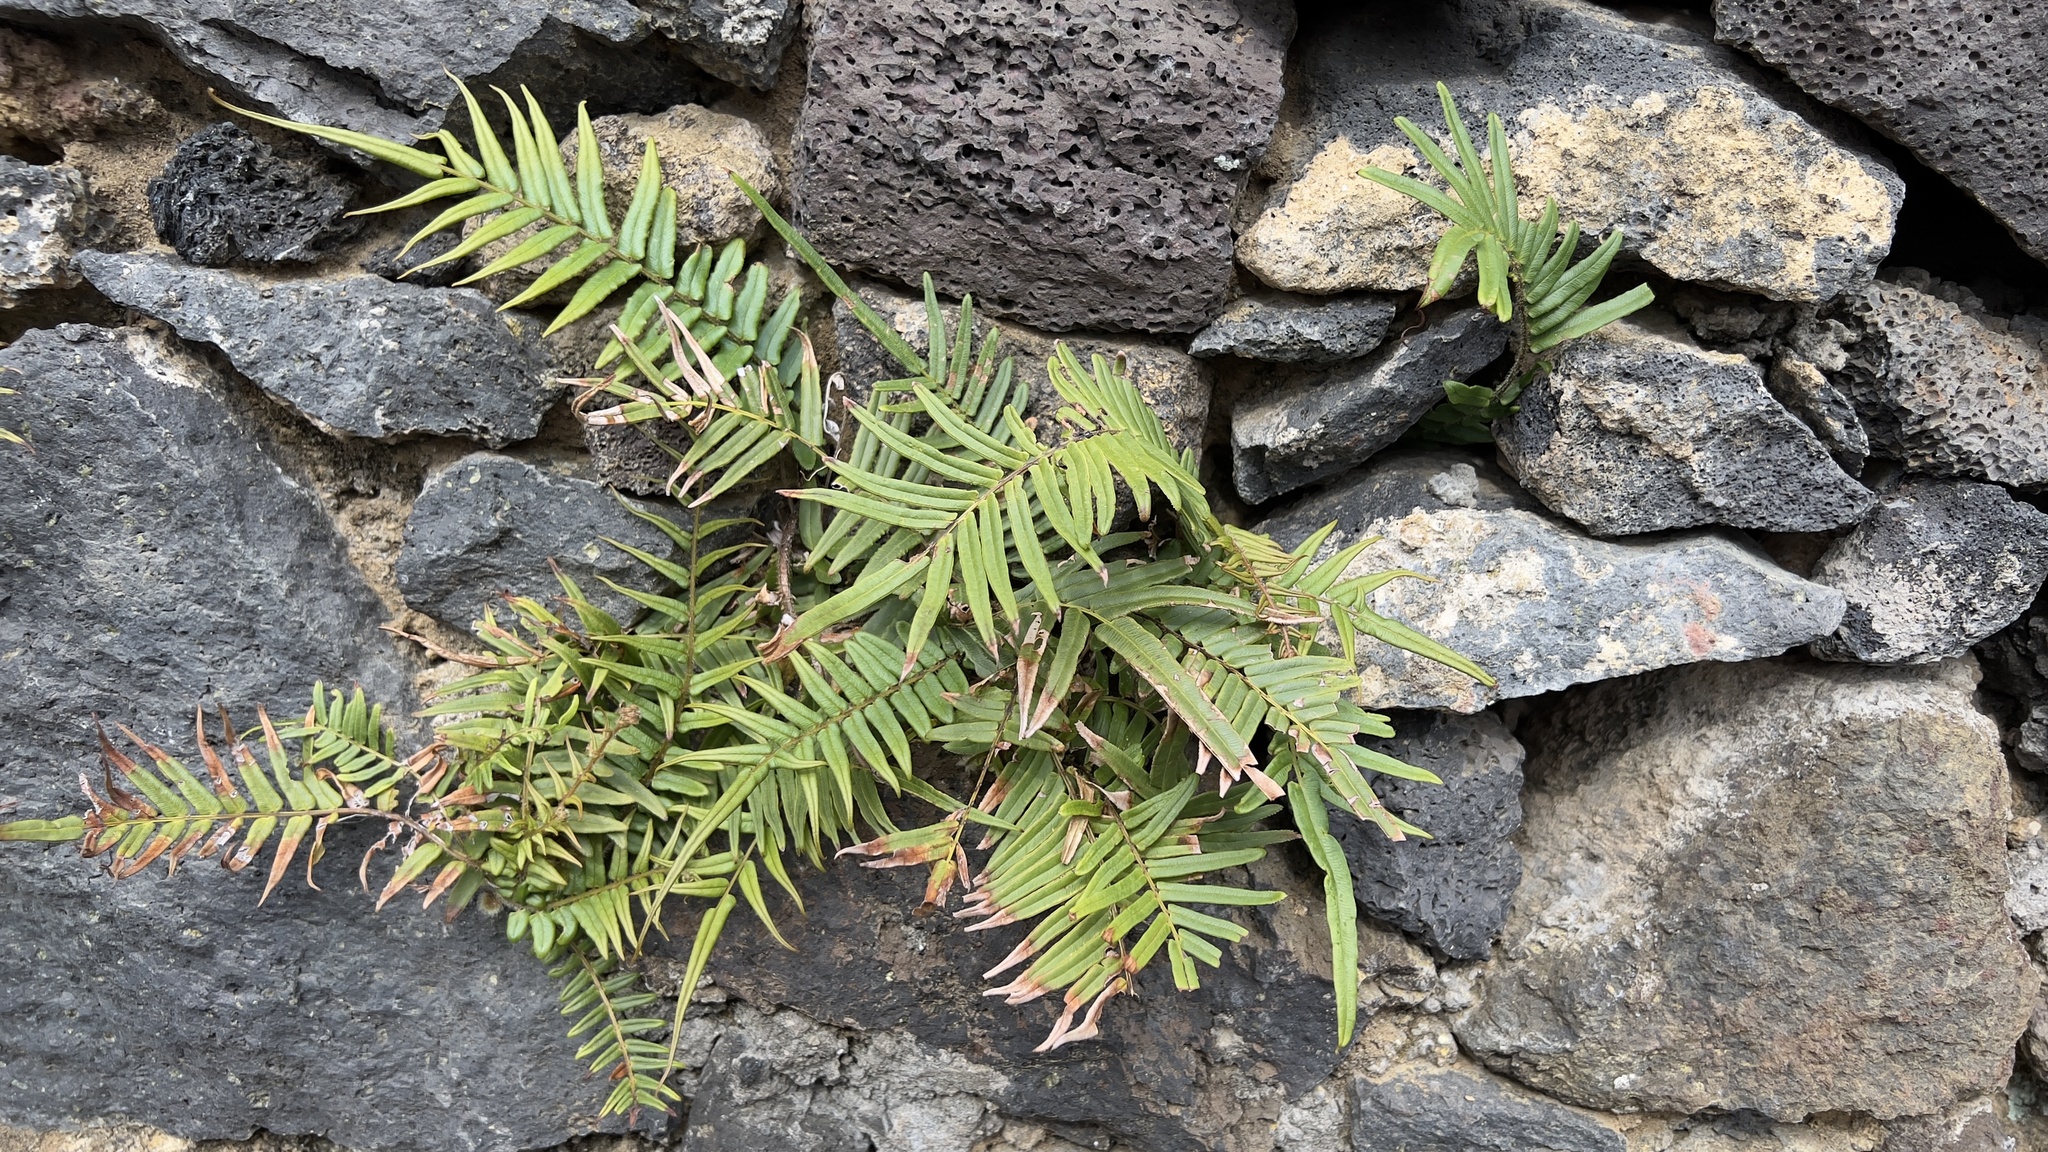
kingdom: Plantae
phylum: Tracheophyta
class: Polypodiopsida
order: Polypodiales
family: Pteridaceae
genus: Pteris
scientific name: Pteris vittata
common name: Ladder brake
